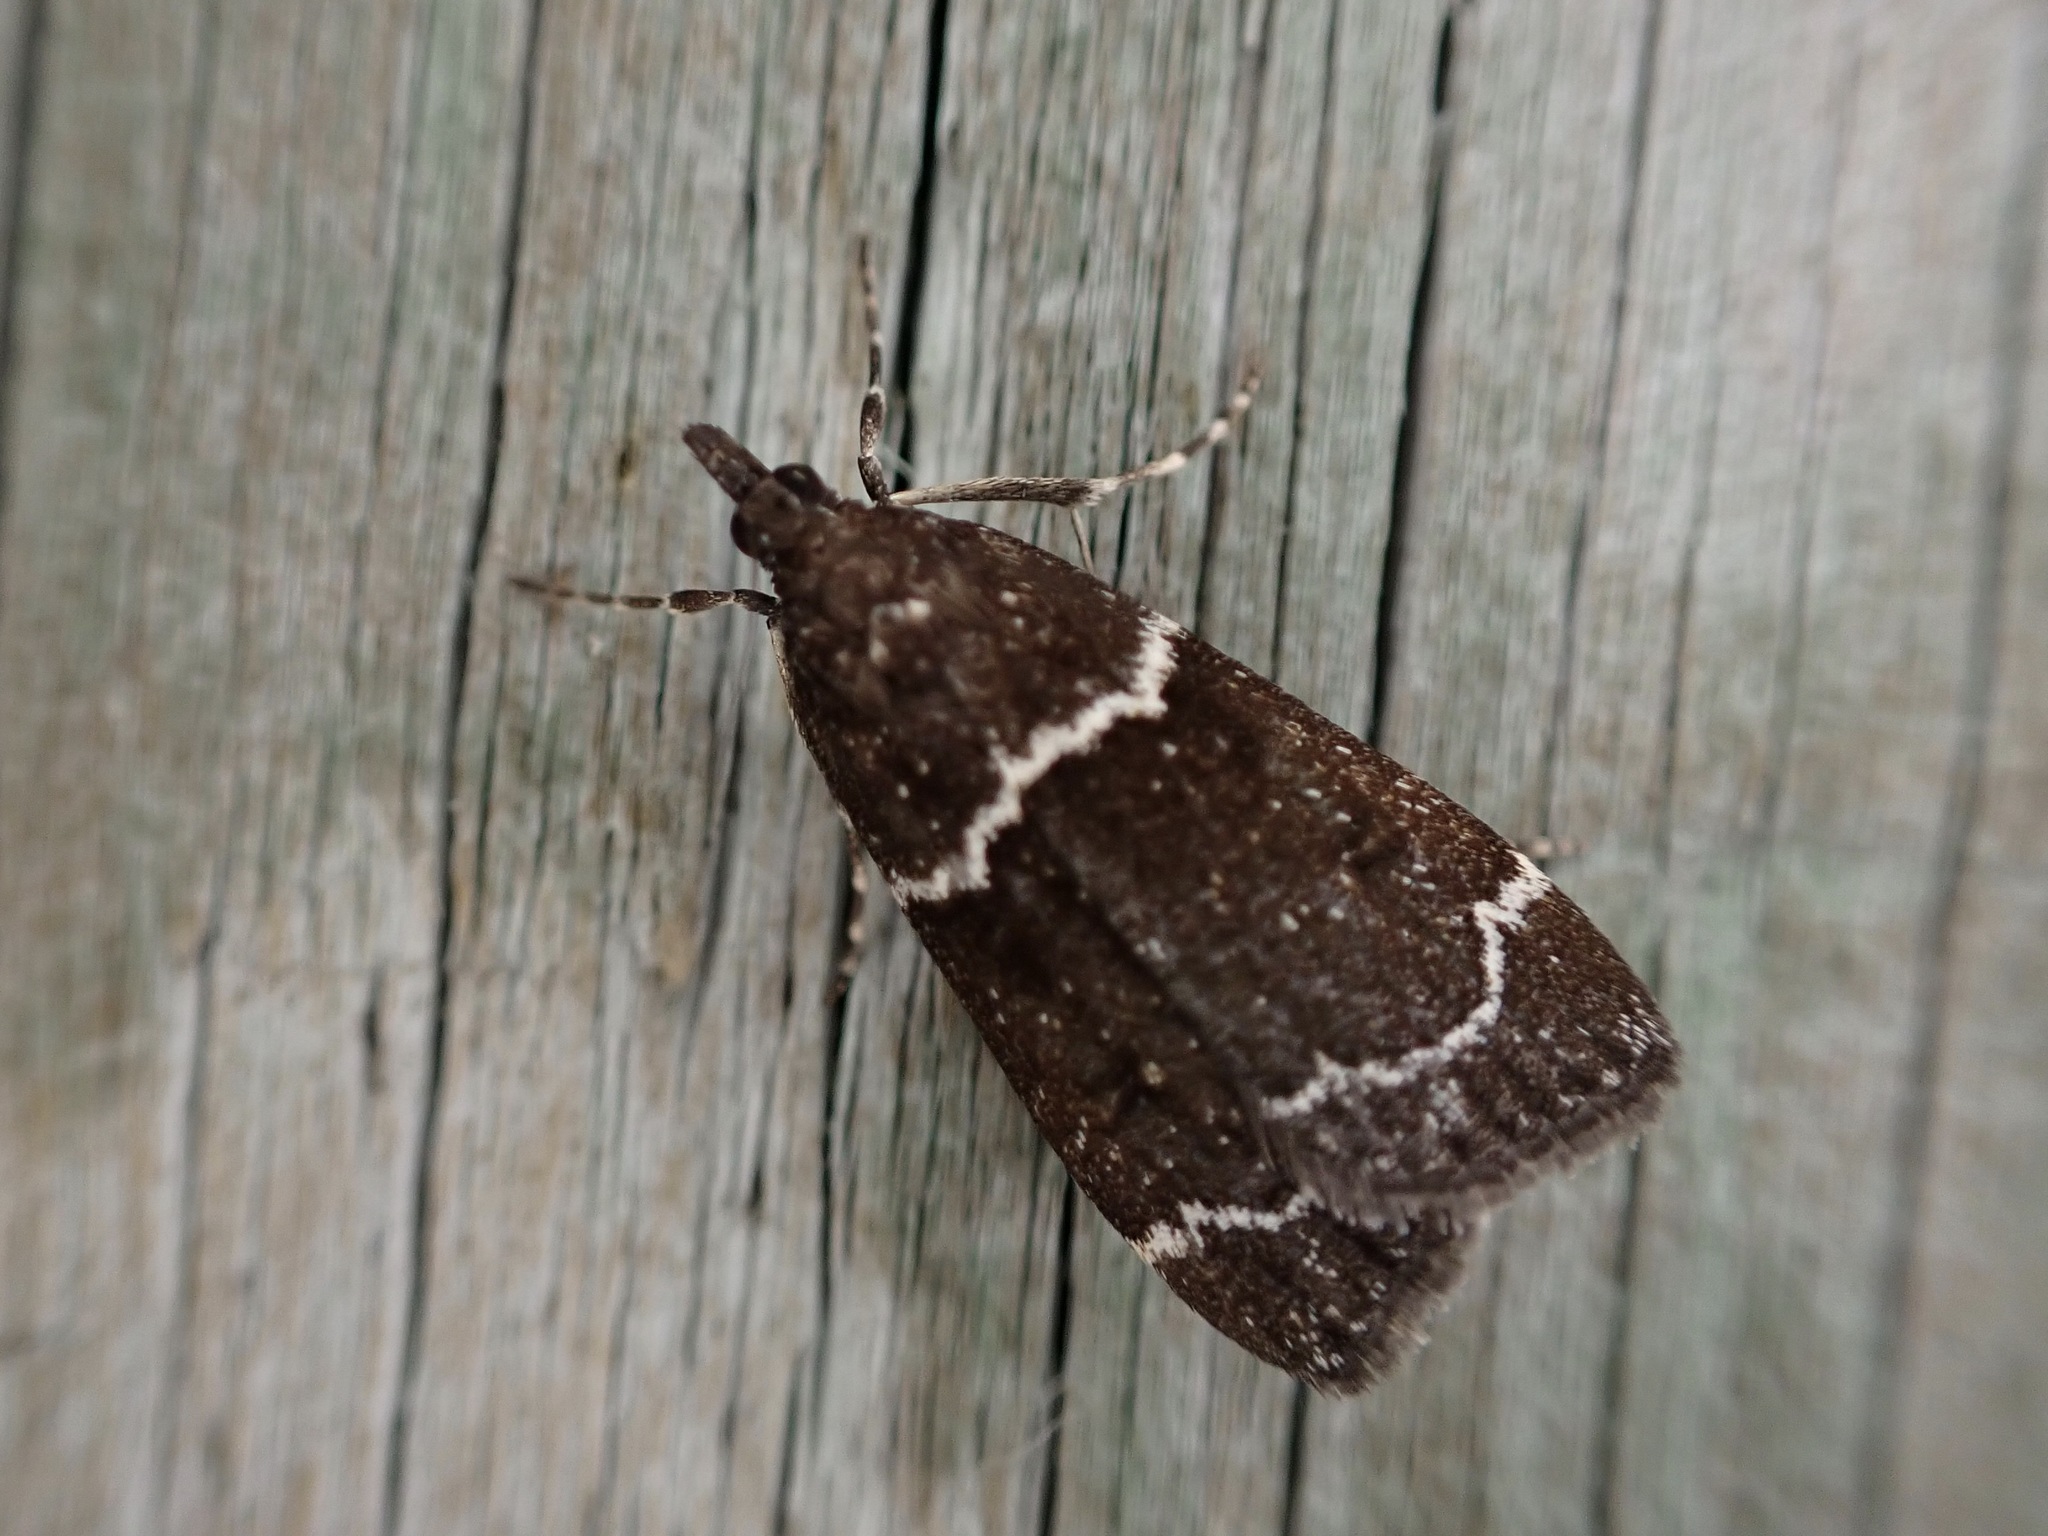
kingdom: Animalia
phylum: Arthropoda
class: Insecta
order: Lepidoptera
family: Crambidae
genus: Eudonia
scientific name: Eudonia leucogramma
